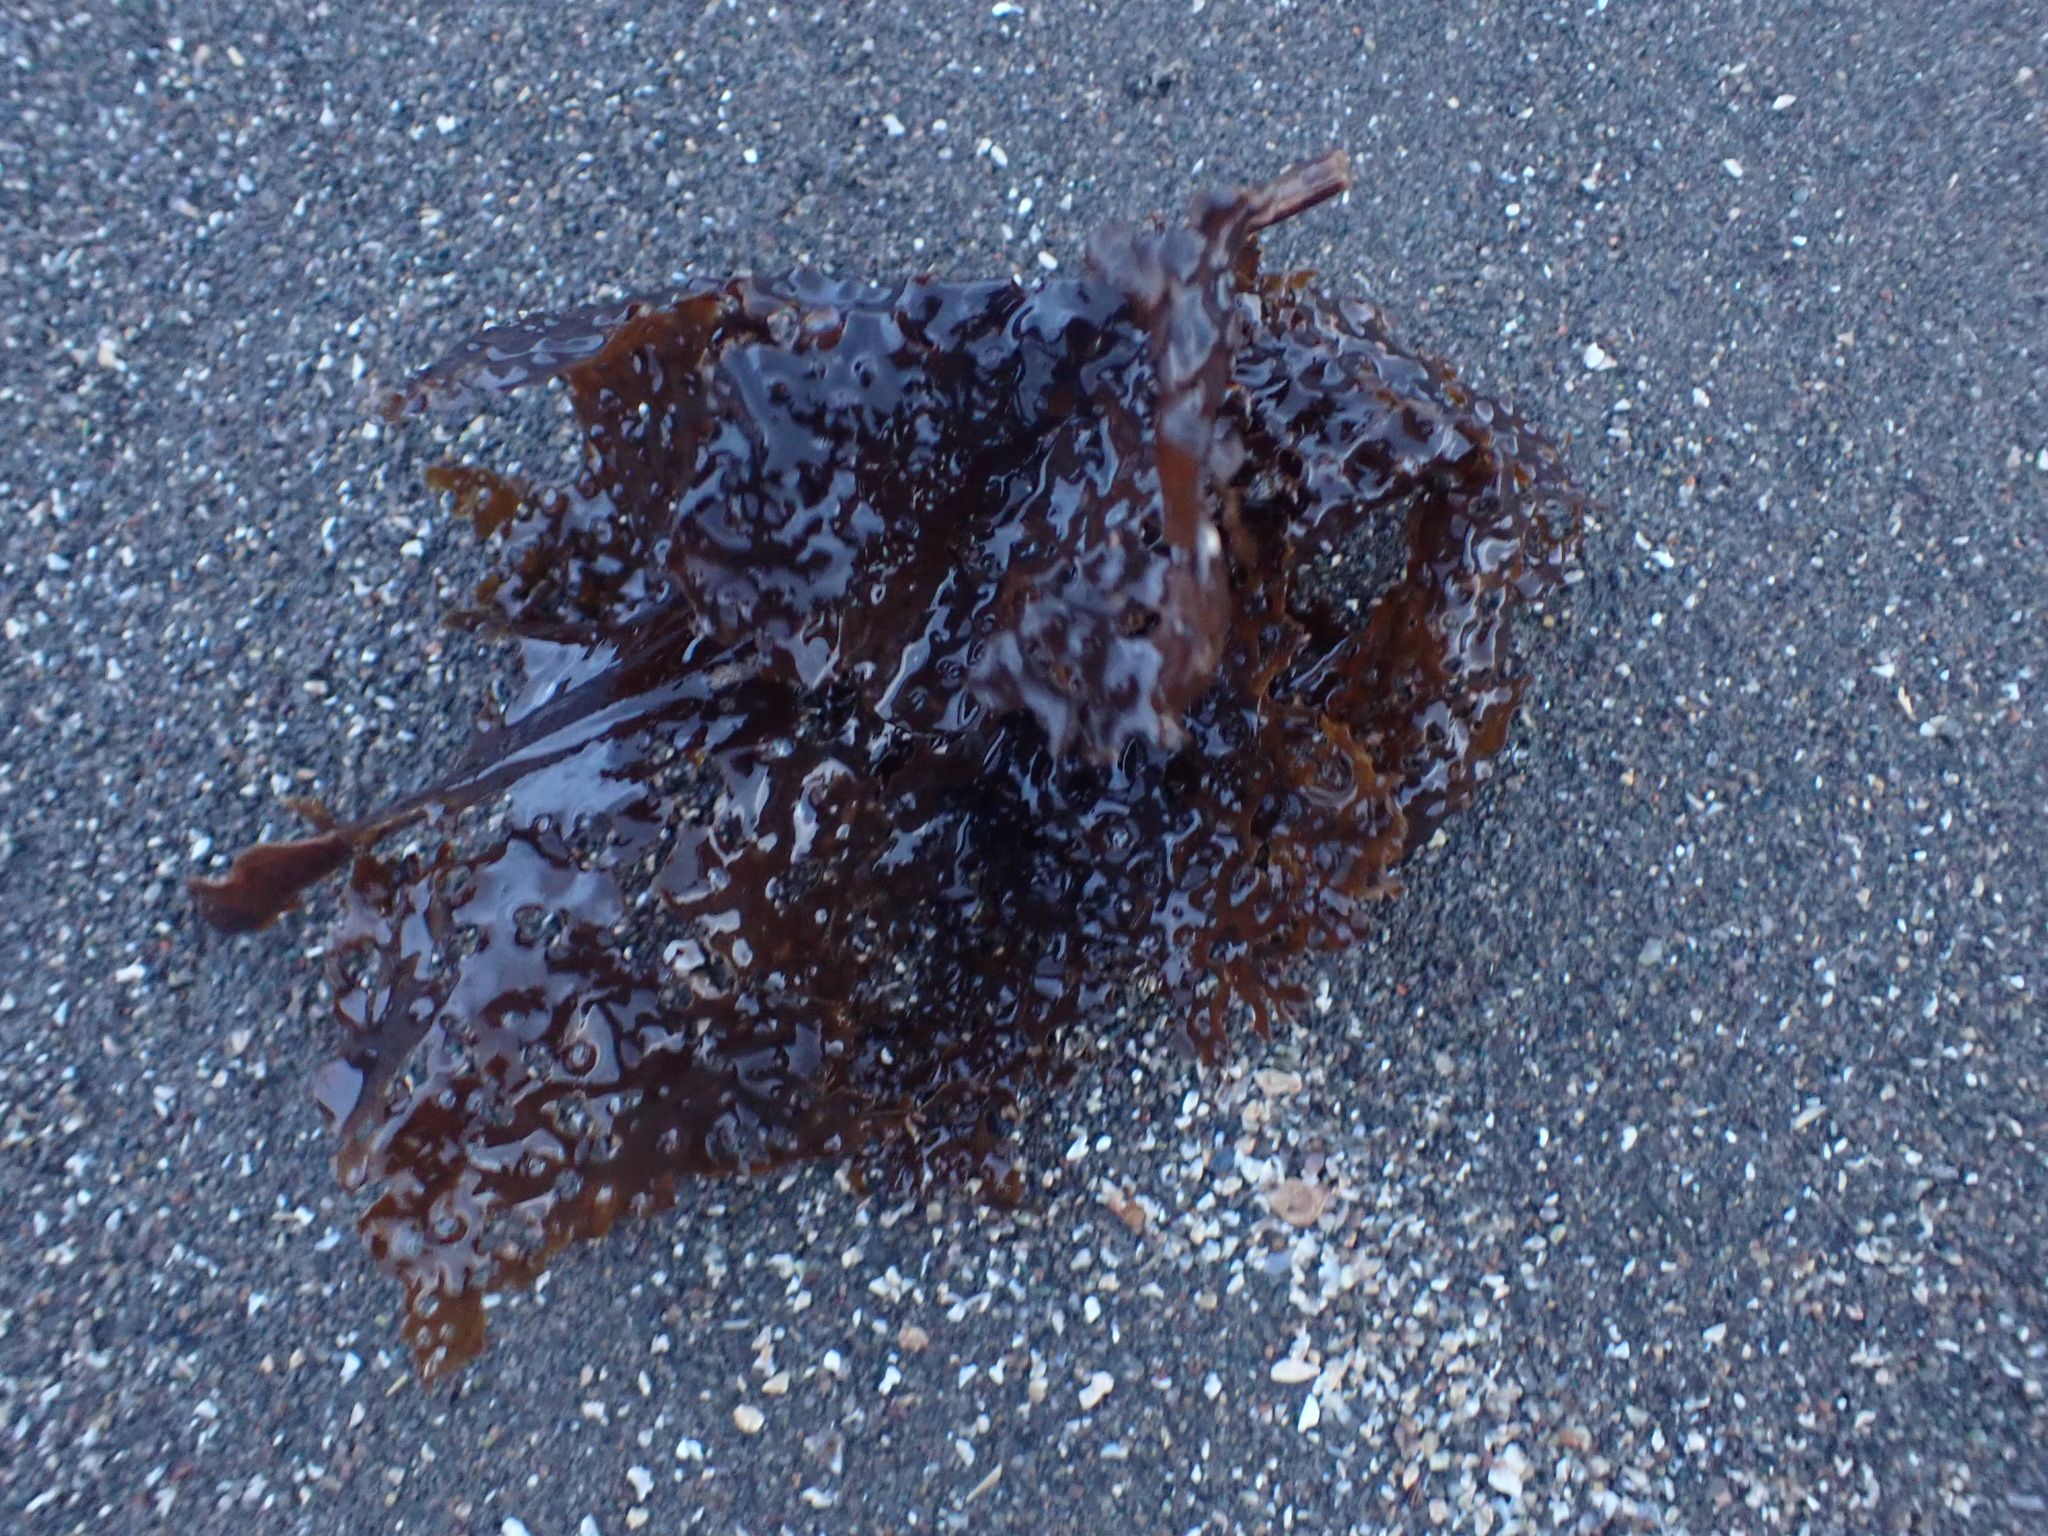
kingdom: Chromista
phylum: Ochrophyta
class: Phaeophyceae
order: Laminariales
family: Costariaceae
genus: Agarum
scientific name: Agarum clathratum
